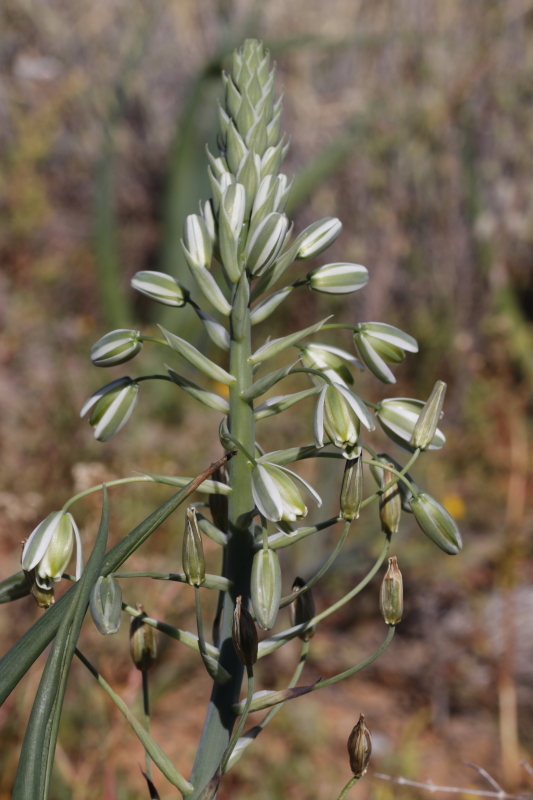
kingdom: Plantae
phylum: Tracheophyta
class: Liliopsida
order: Asparagales
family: Asparagaceae
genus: Albuca
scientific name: Albuca canadensis
